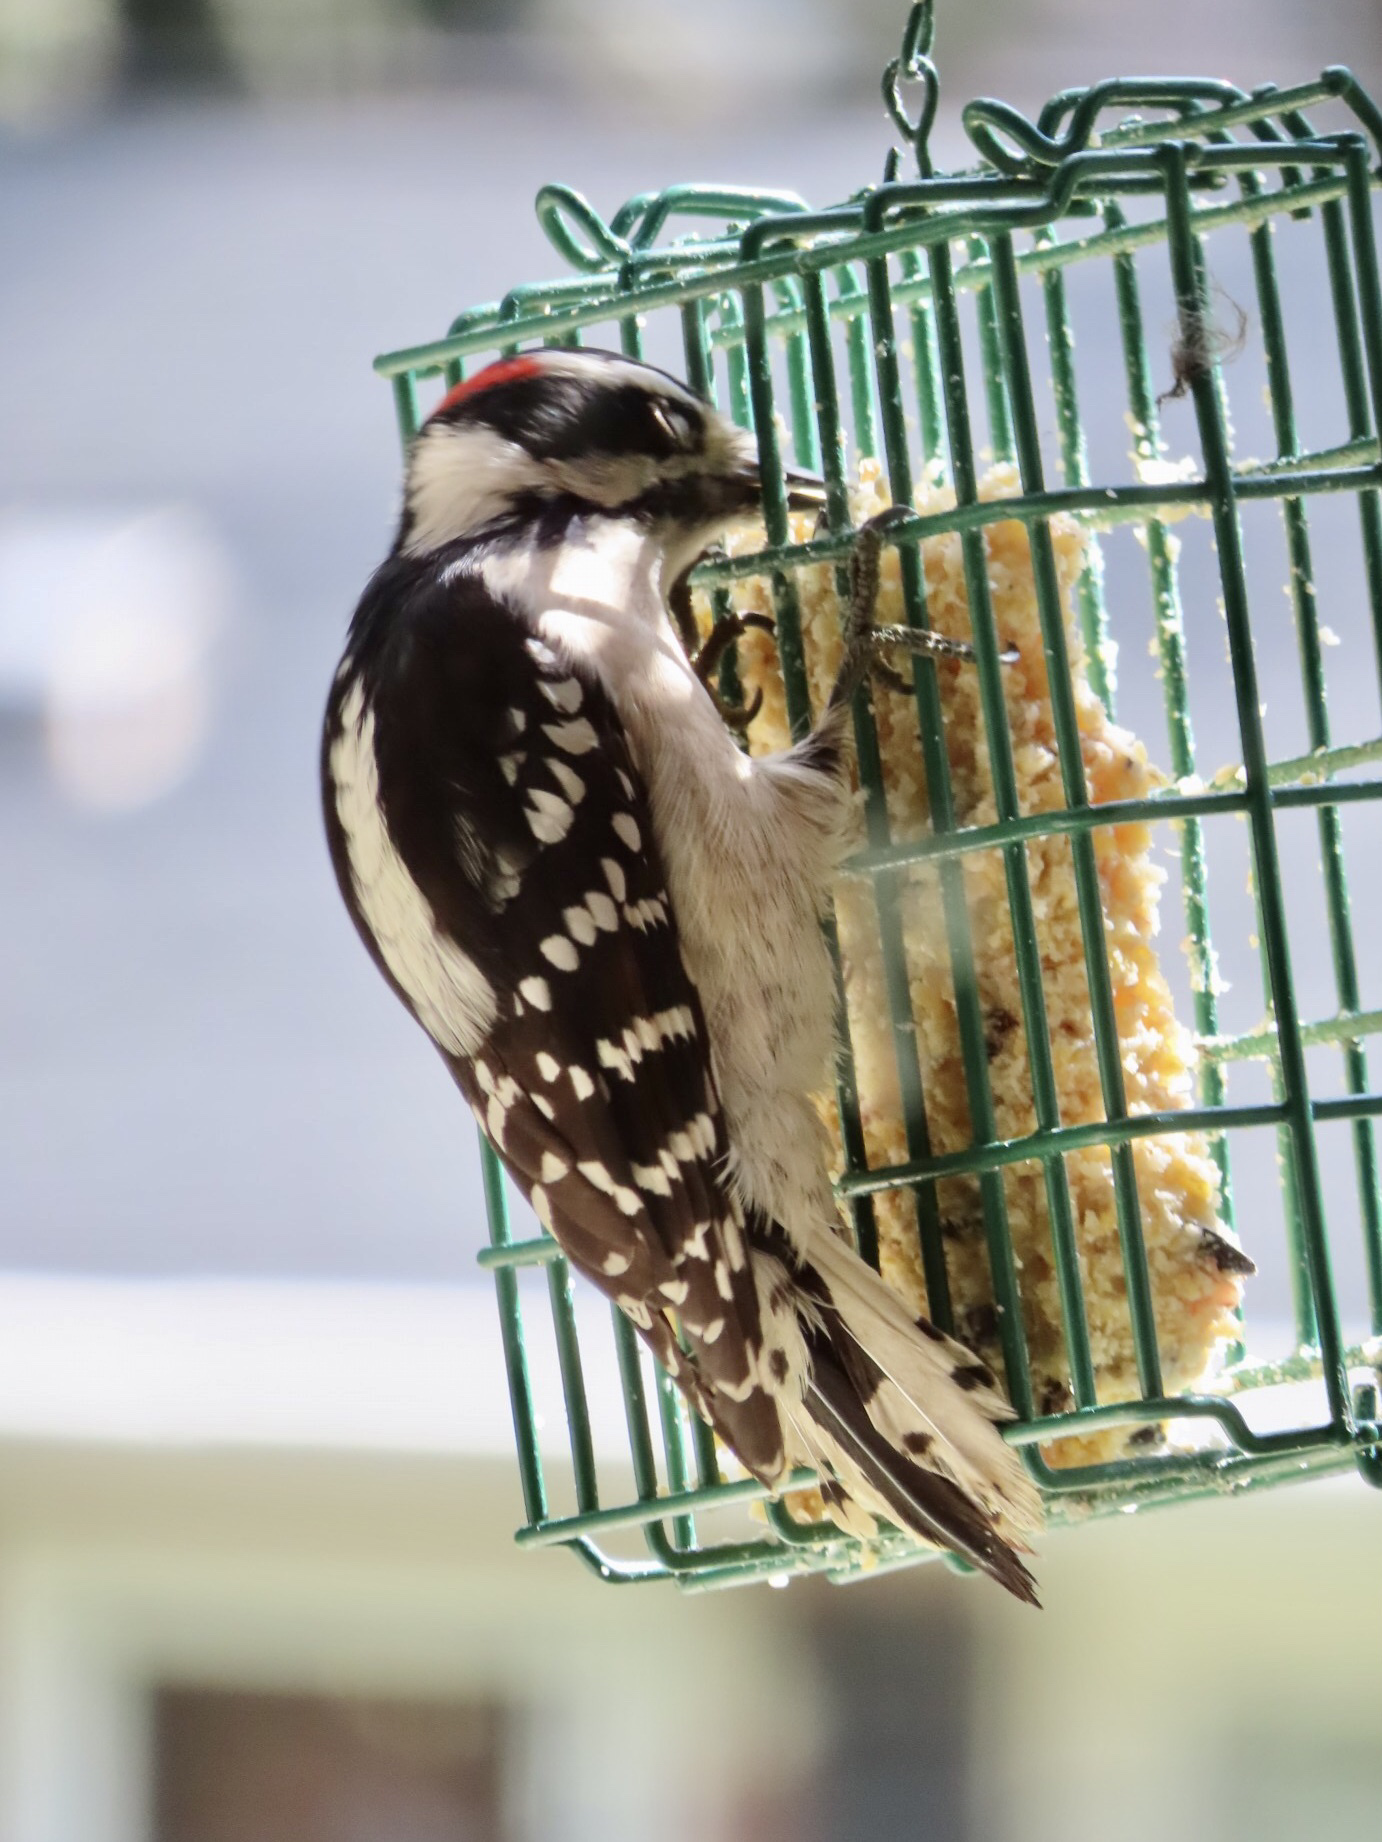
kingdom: Animalia
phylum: Chordata
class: Aves
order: Piciformes
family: Picidae
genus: Dryobates
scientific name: Dryobates pubescens
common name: Downy woodpecker
